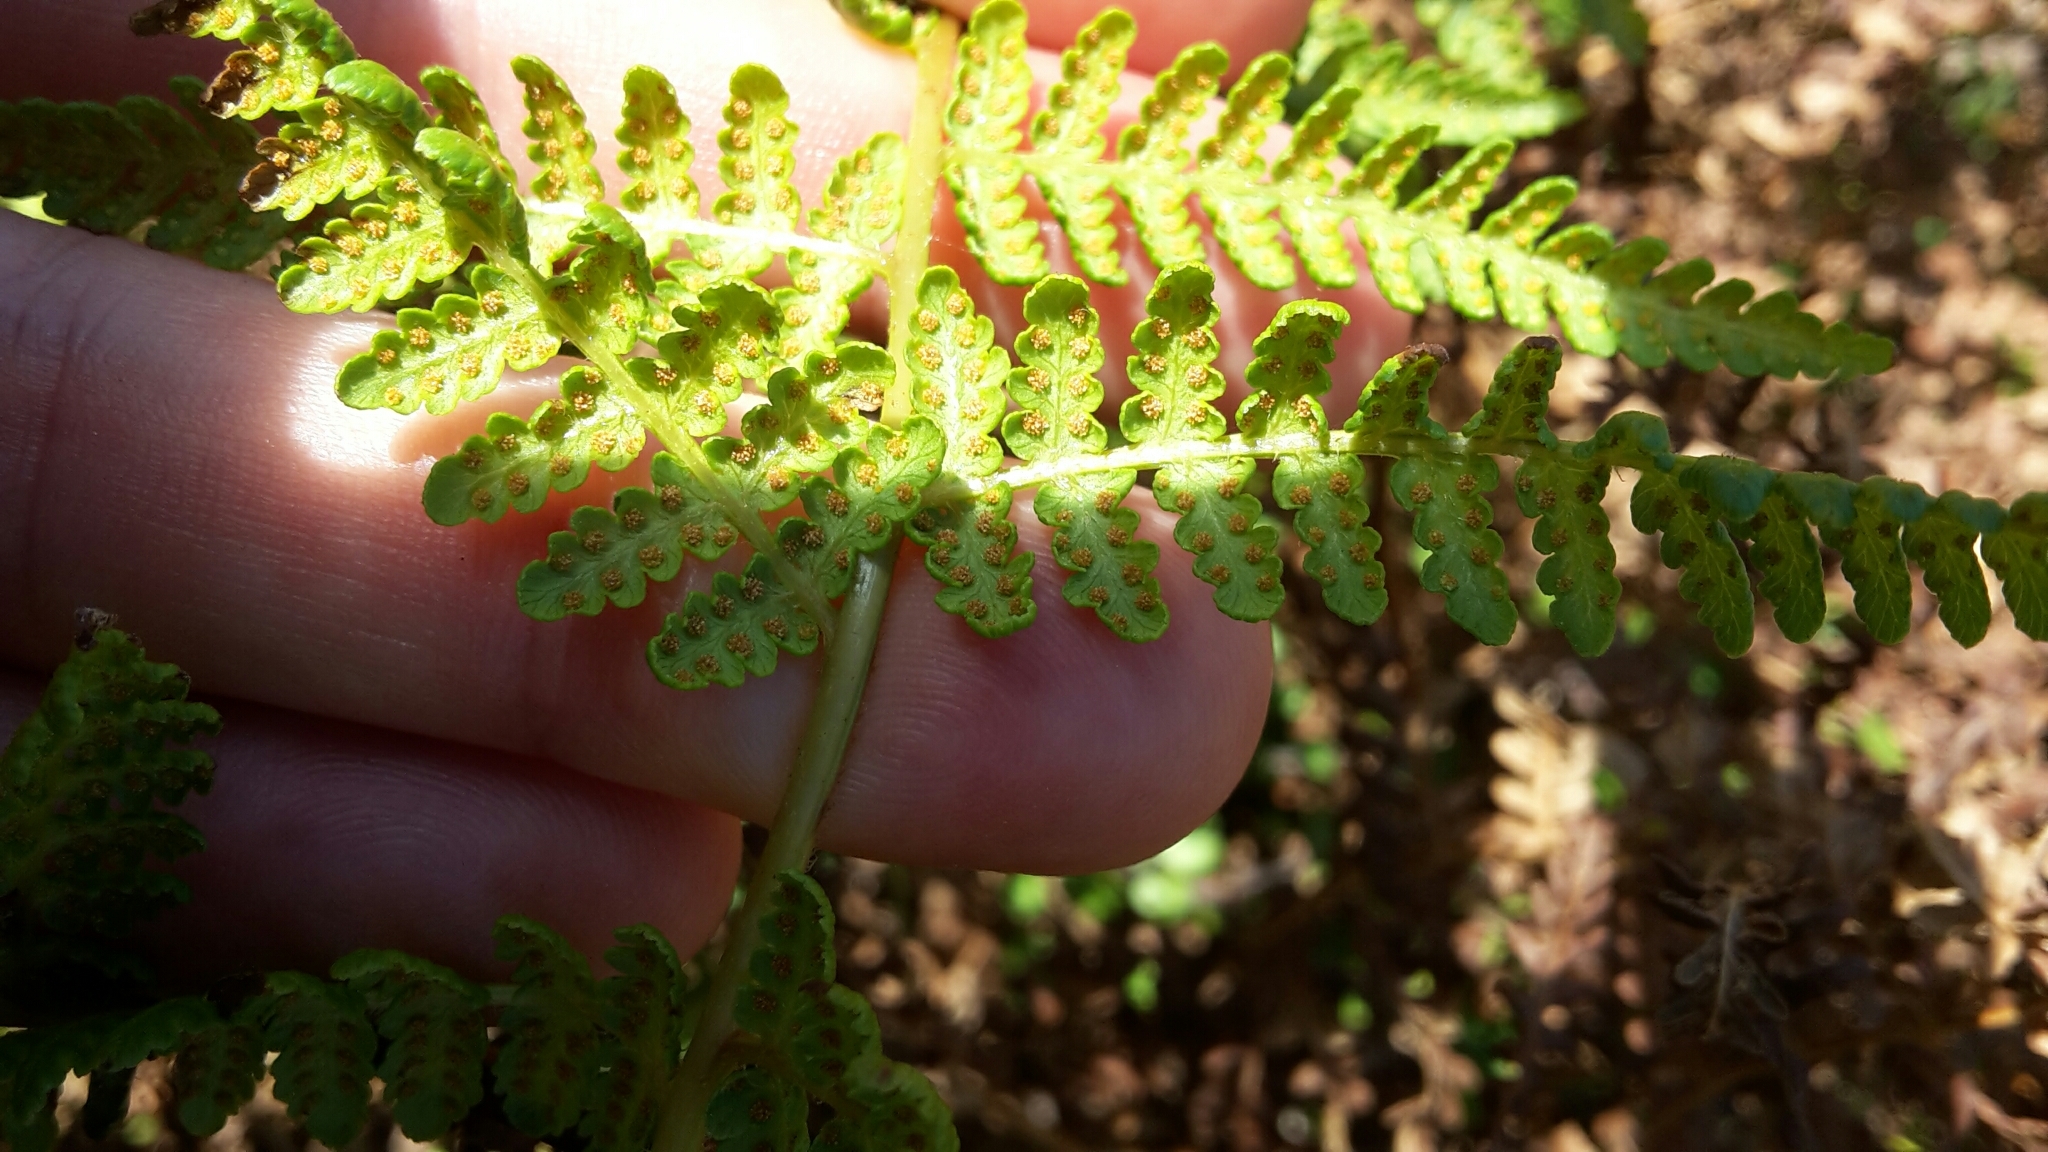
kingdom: Plantae
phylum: Tracheophyta
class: Polypodiopsida
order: Polypodiales
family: Dennstaedtiaceae
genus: Hypolepis
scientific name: Hypolepis ambigua
